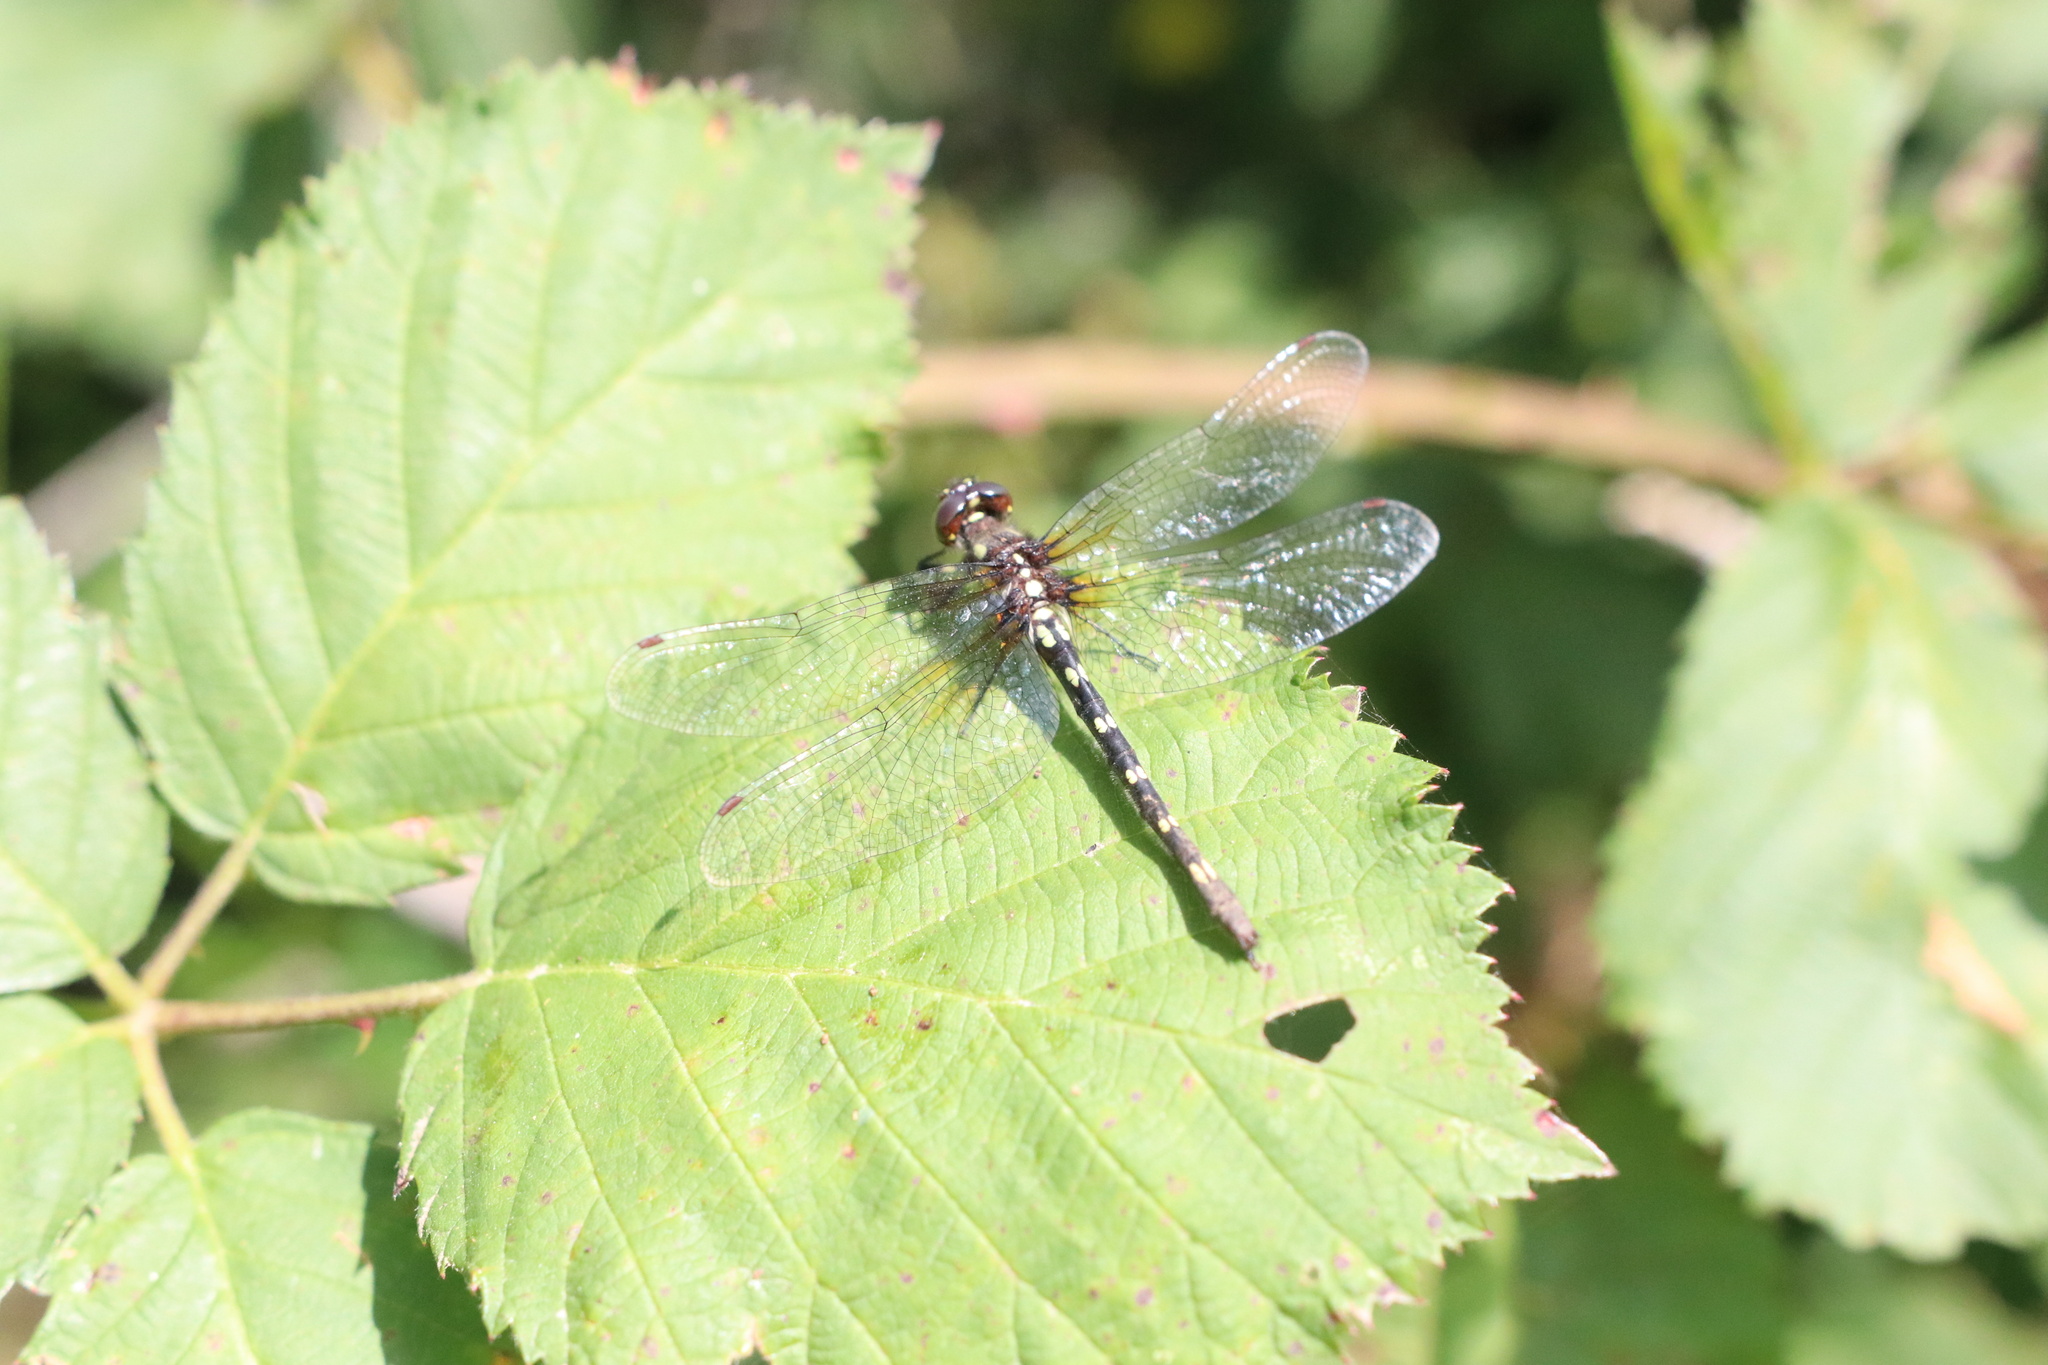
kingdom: Animalia
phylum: Arthropoda
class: Insecta
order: Odonata
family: Synthemistidae
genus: Gomphomacromia
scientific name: Gomphomacromia paradoxa
